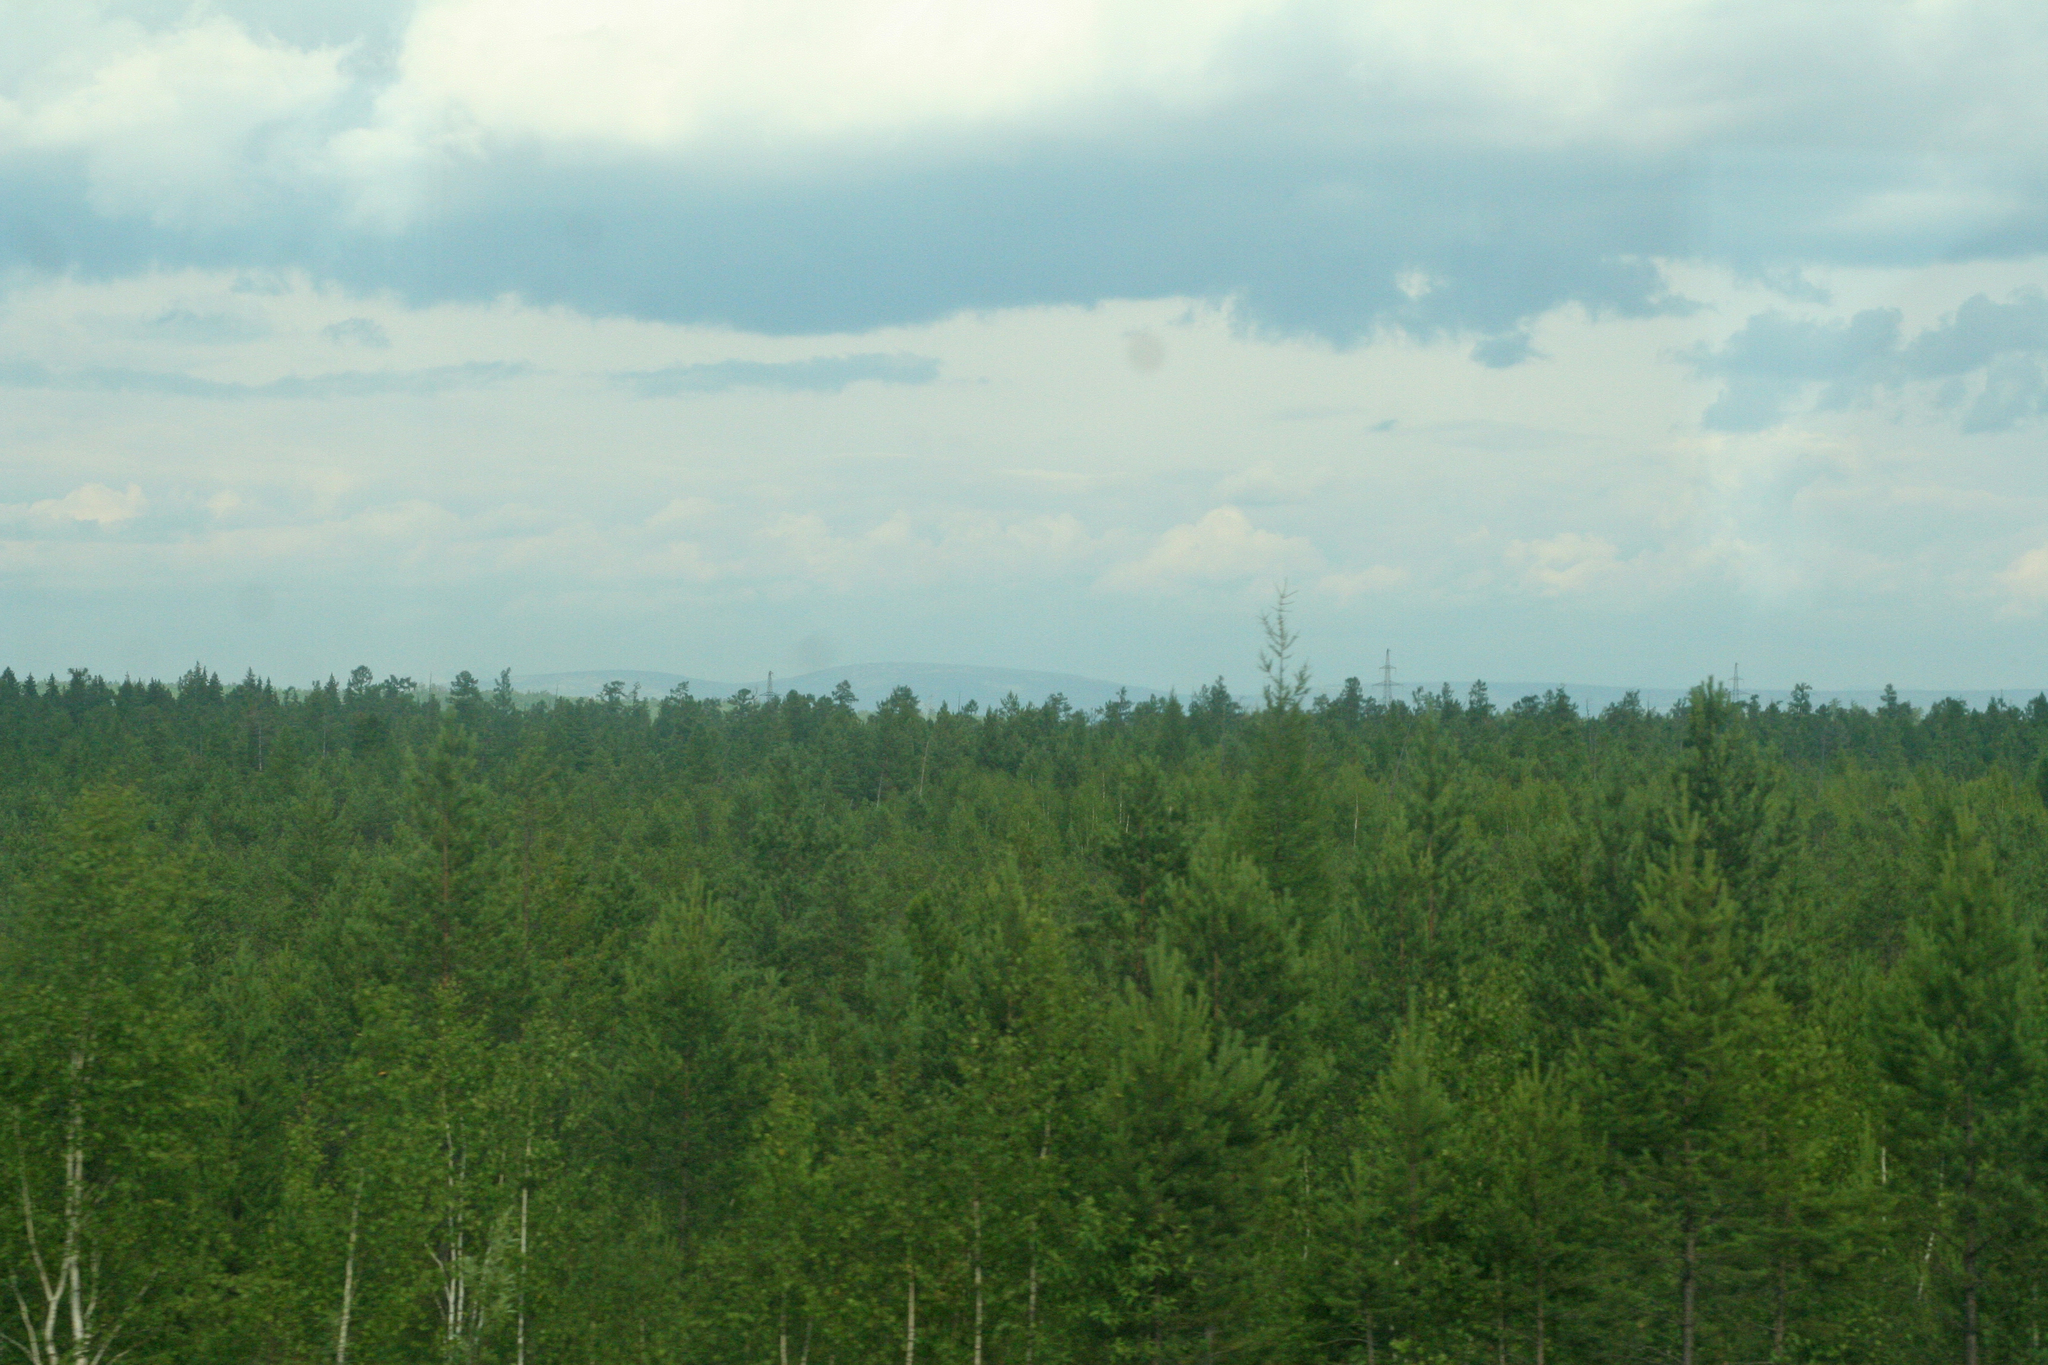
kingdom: Plantae
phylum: Tracheophyta
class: Pinopsida
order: Pinales
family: Pinaceae
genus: Pinus
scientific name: Pinus sylvestris
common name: Scots pine
